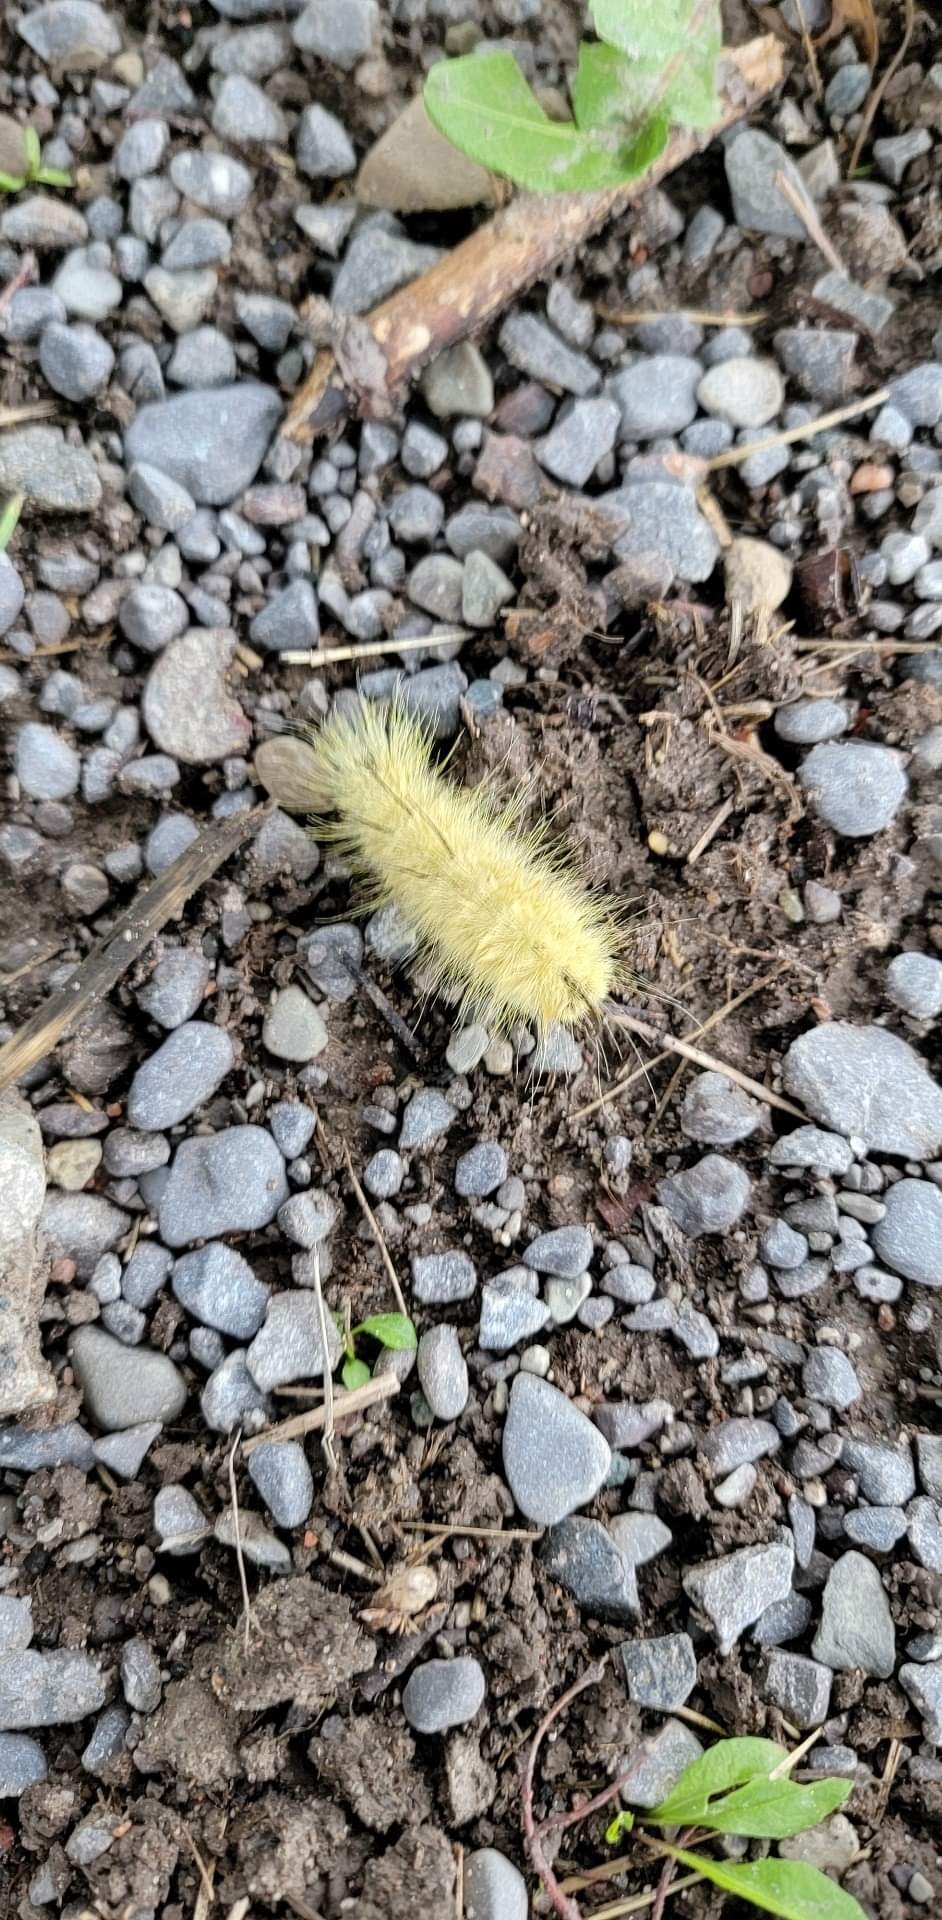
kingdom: Animalia
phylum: Arthropoda
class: Insecta
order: Lepidoptera
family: Noctuidae
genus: Acronicta
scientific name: Acronicta americana
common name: American dagger
